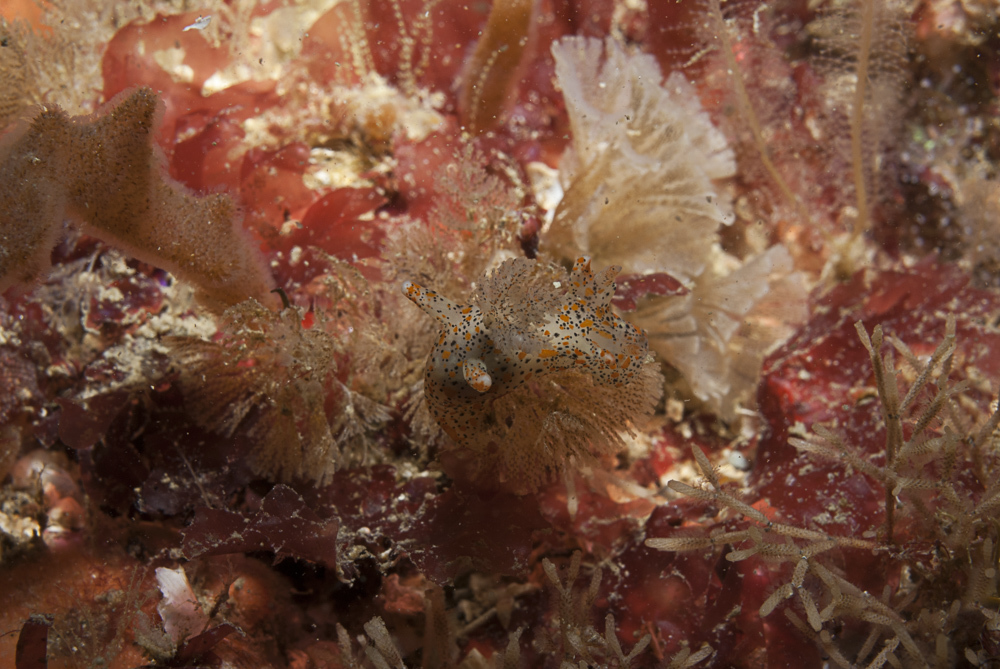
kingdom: Animalia
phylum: Mollusca
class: Gastropoda
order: Nudibranchia
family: Polyceridae
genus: Thecacera
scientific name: Thecacera pennigera
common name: Thecacera
